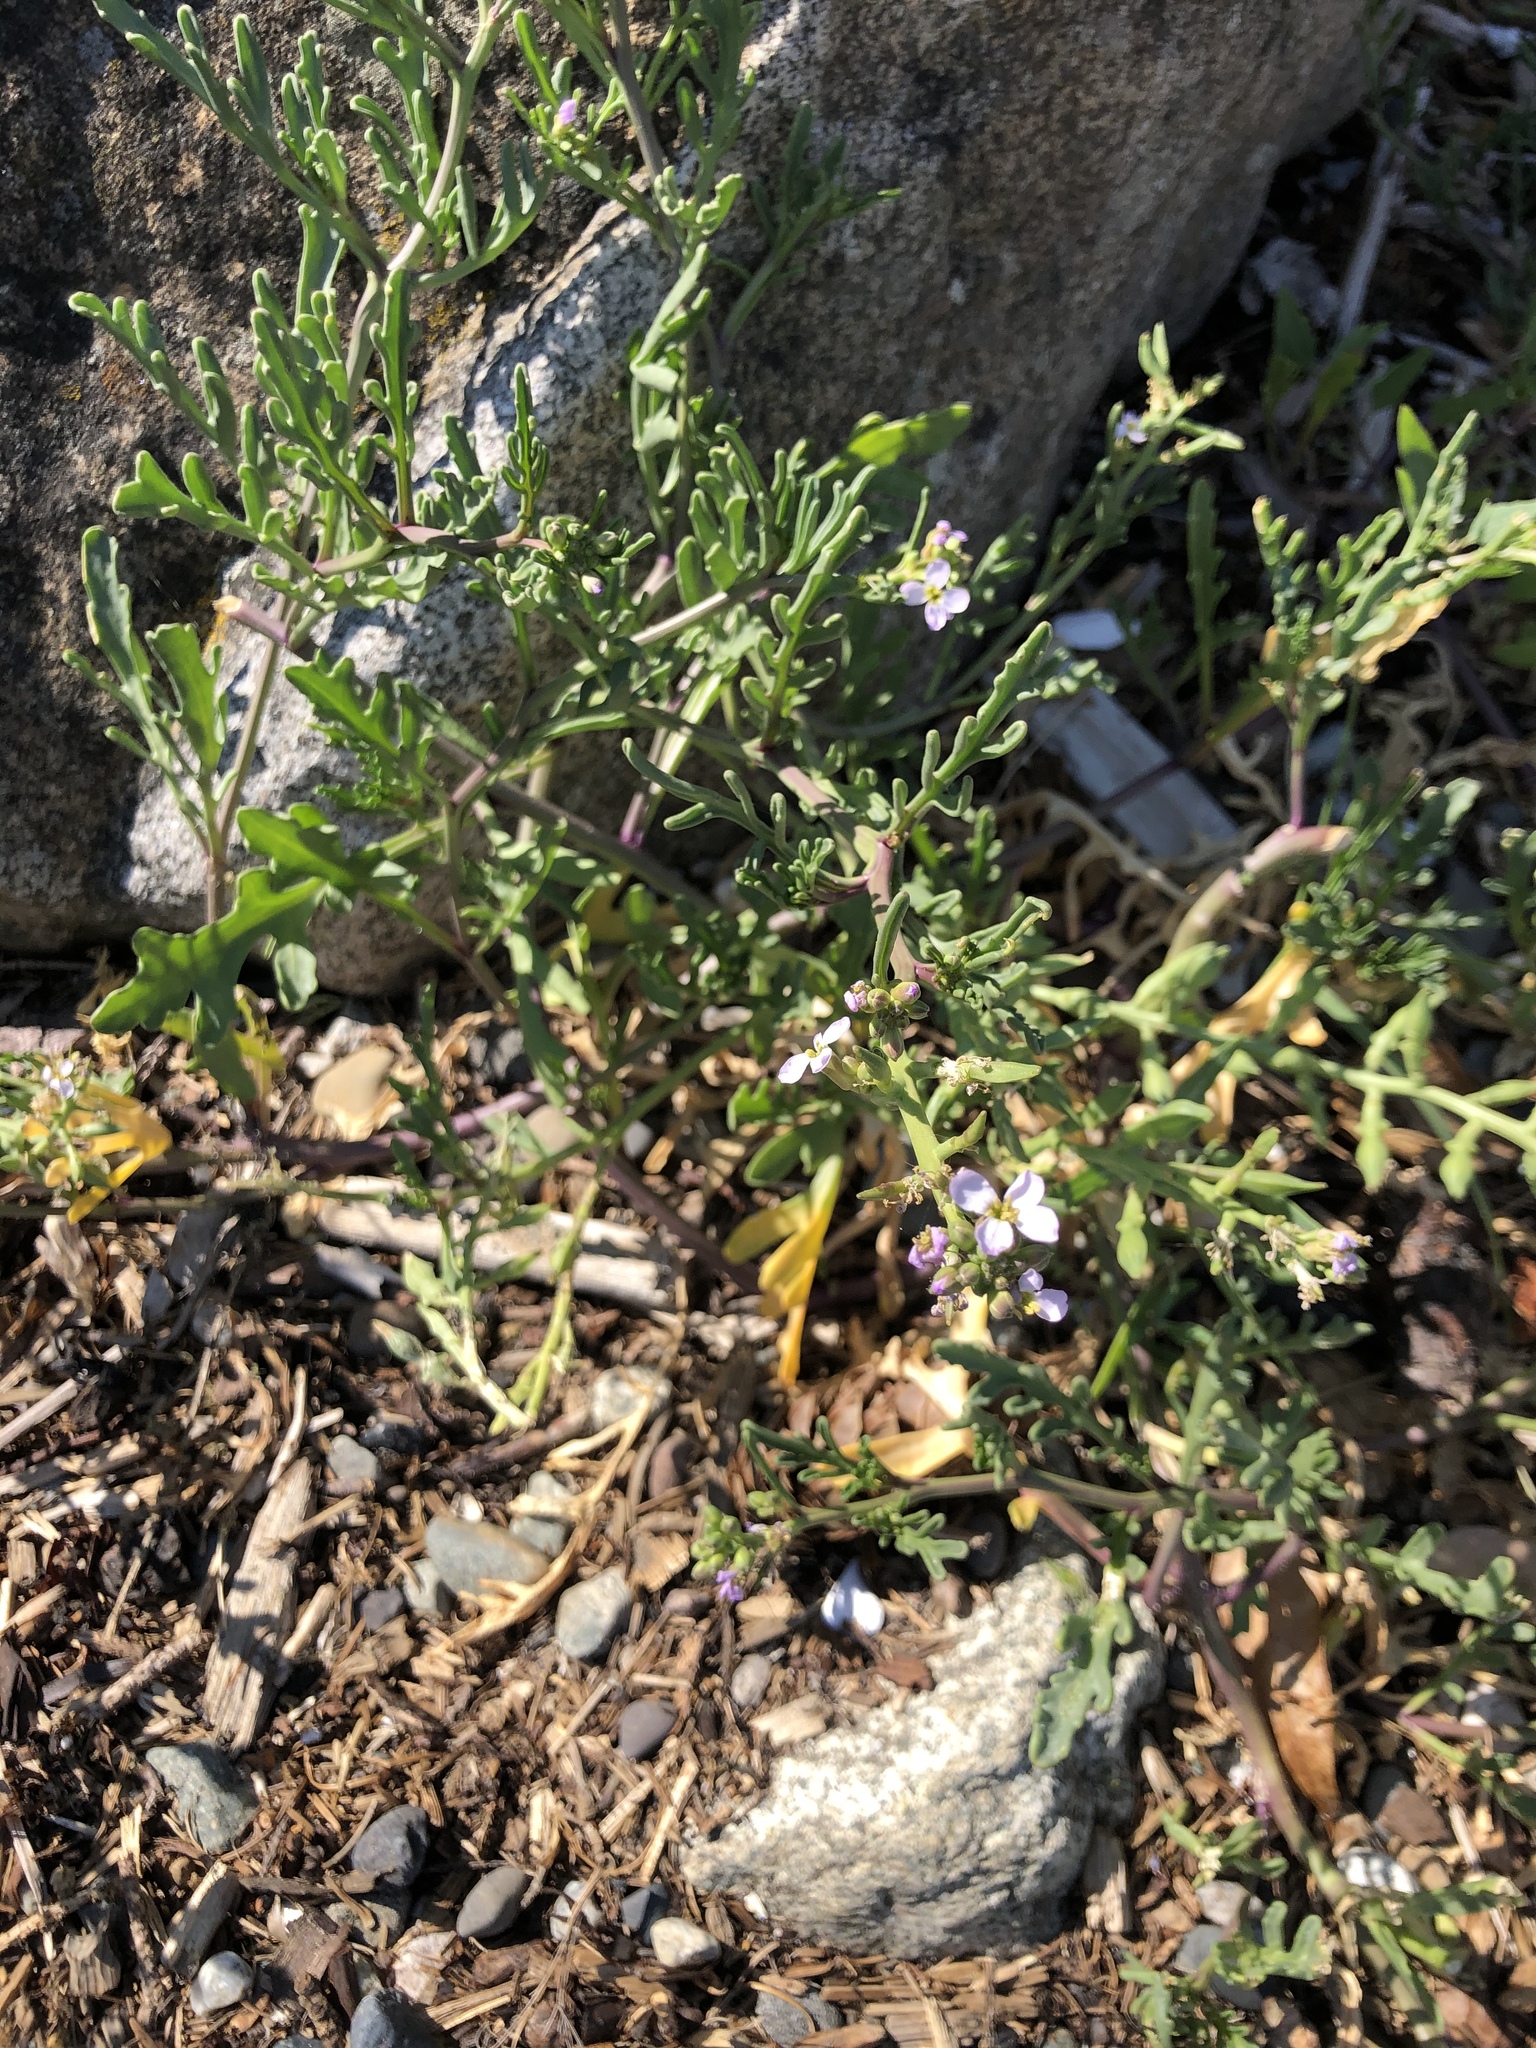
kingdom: Plantae
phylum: Tracheophyta
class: Magnoliopsida
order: Brassicales
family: Brassicaceae
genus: Cakile
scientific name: Cakile maritima
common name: Sea rocket
